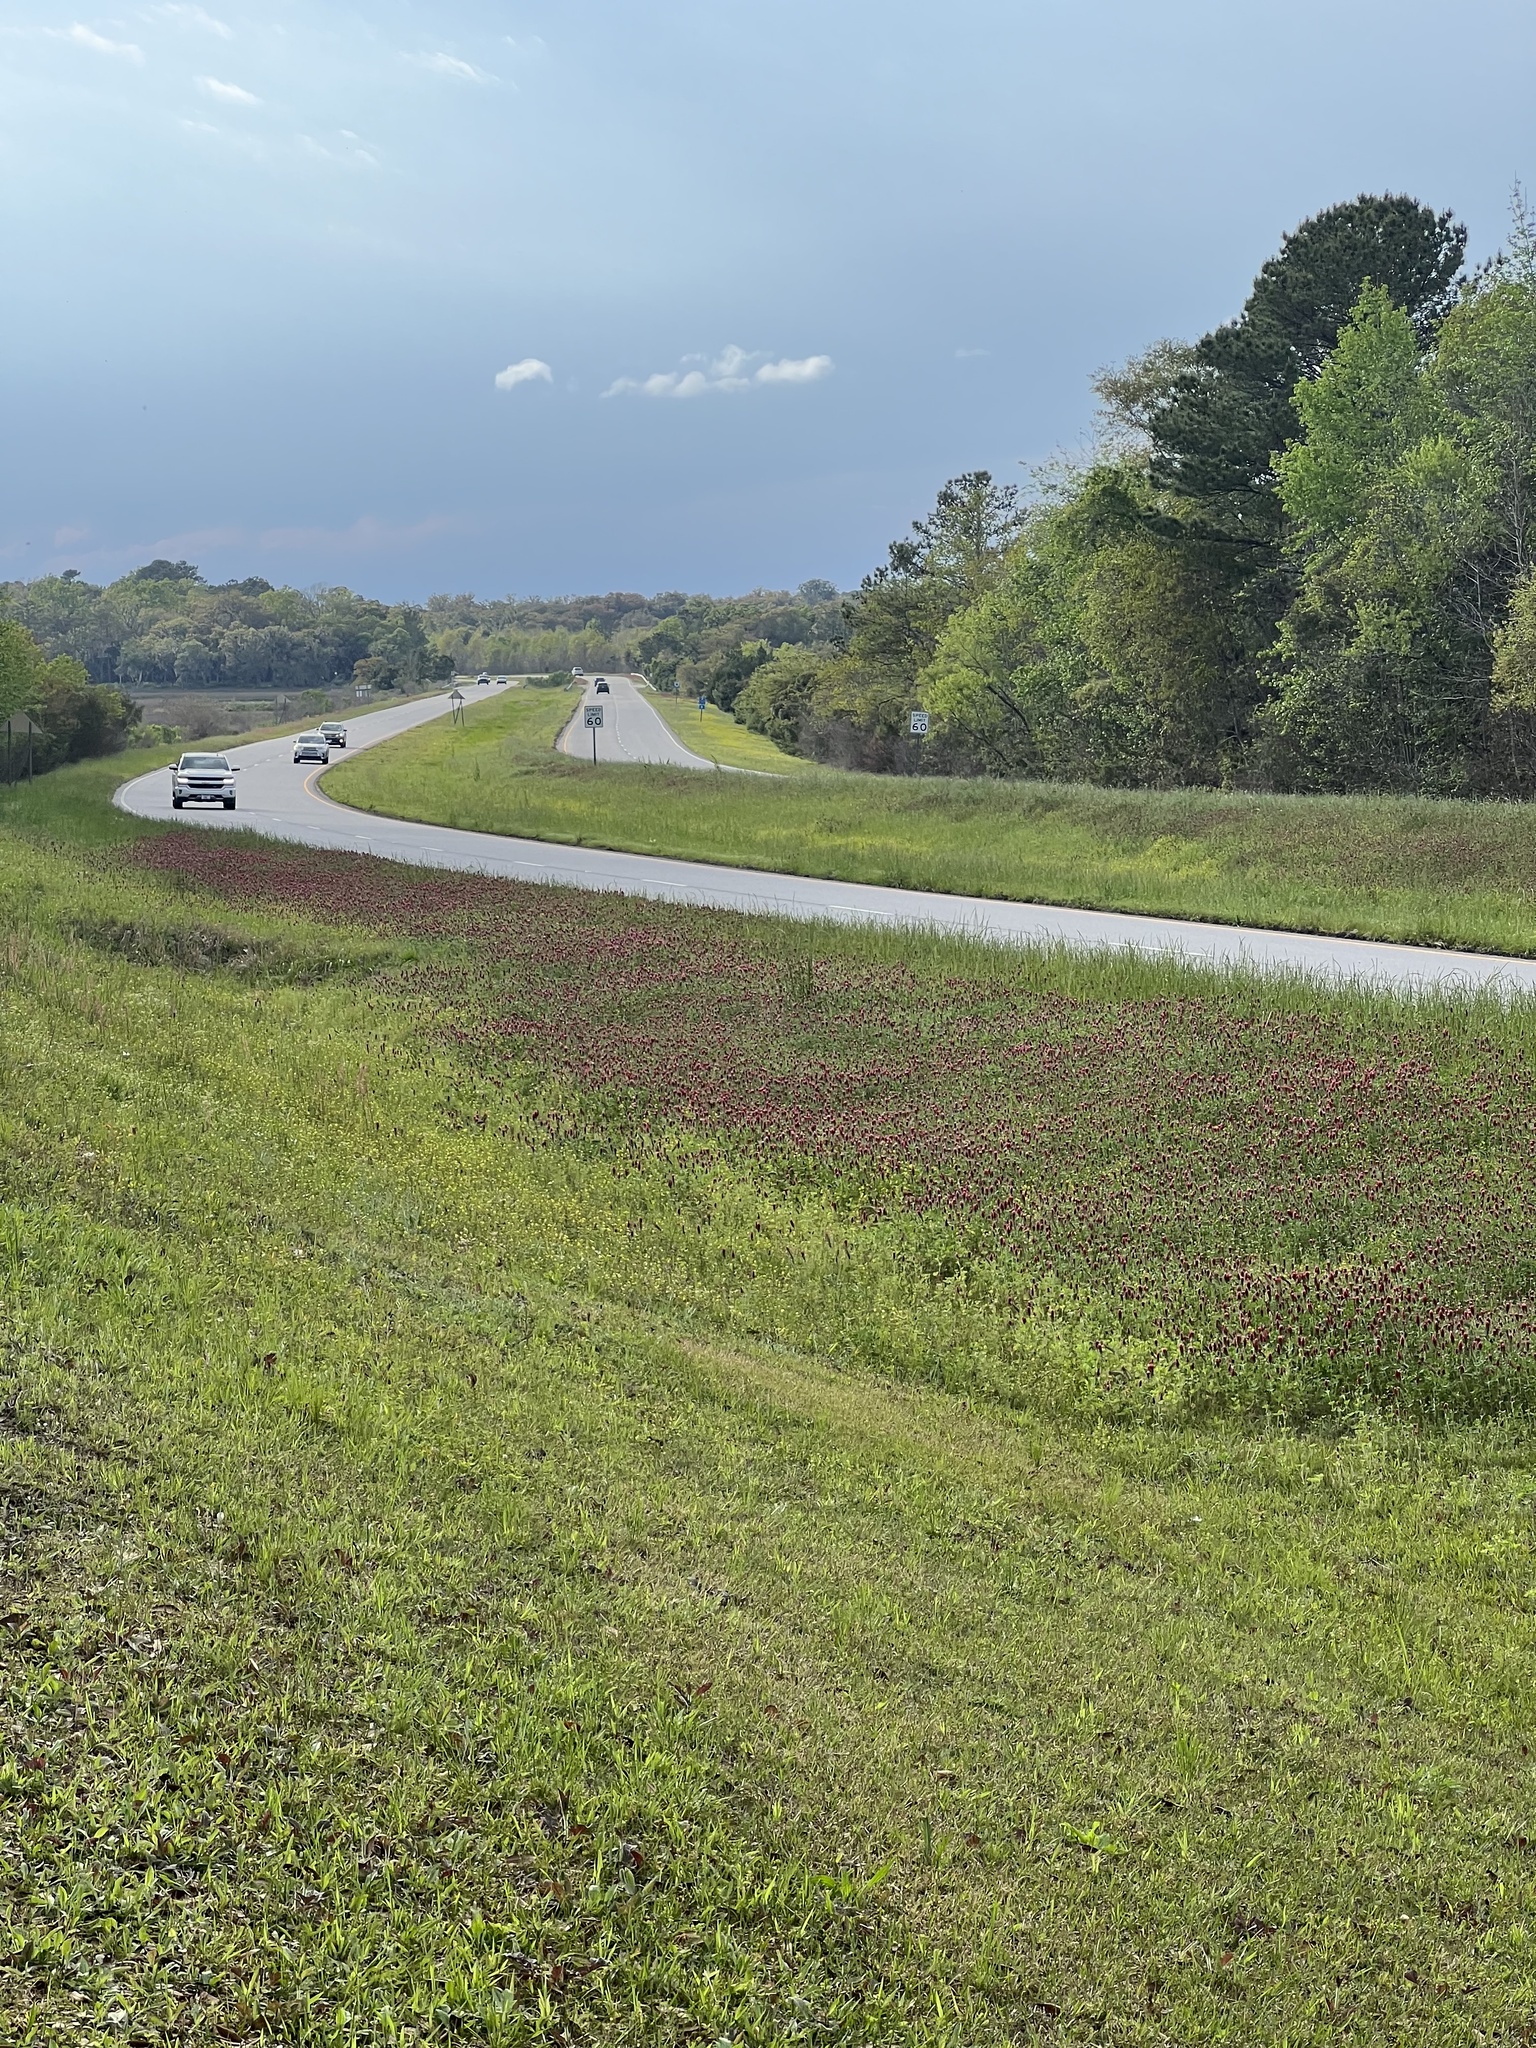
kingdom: Plantae
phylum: Tracheophyta
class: Magnoliopsida
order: Fabales
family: Fabaceae
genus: Trifolium
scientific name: Trifolium incarnatum
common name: Crimson clover
